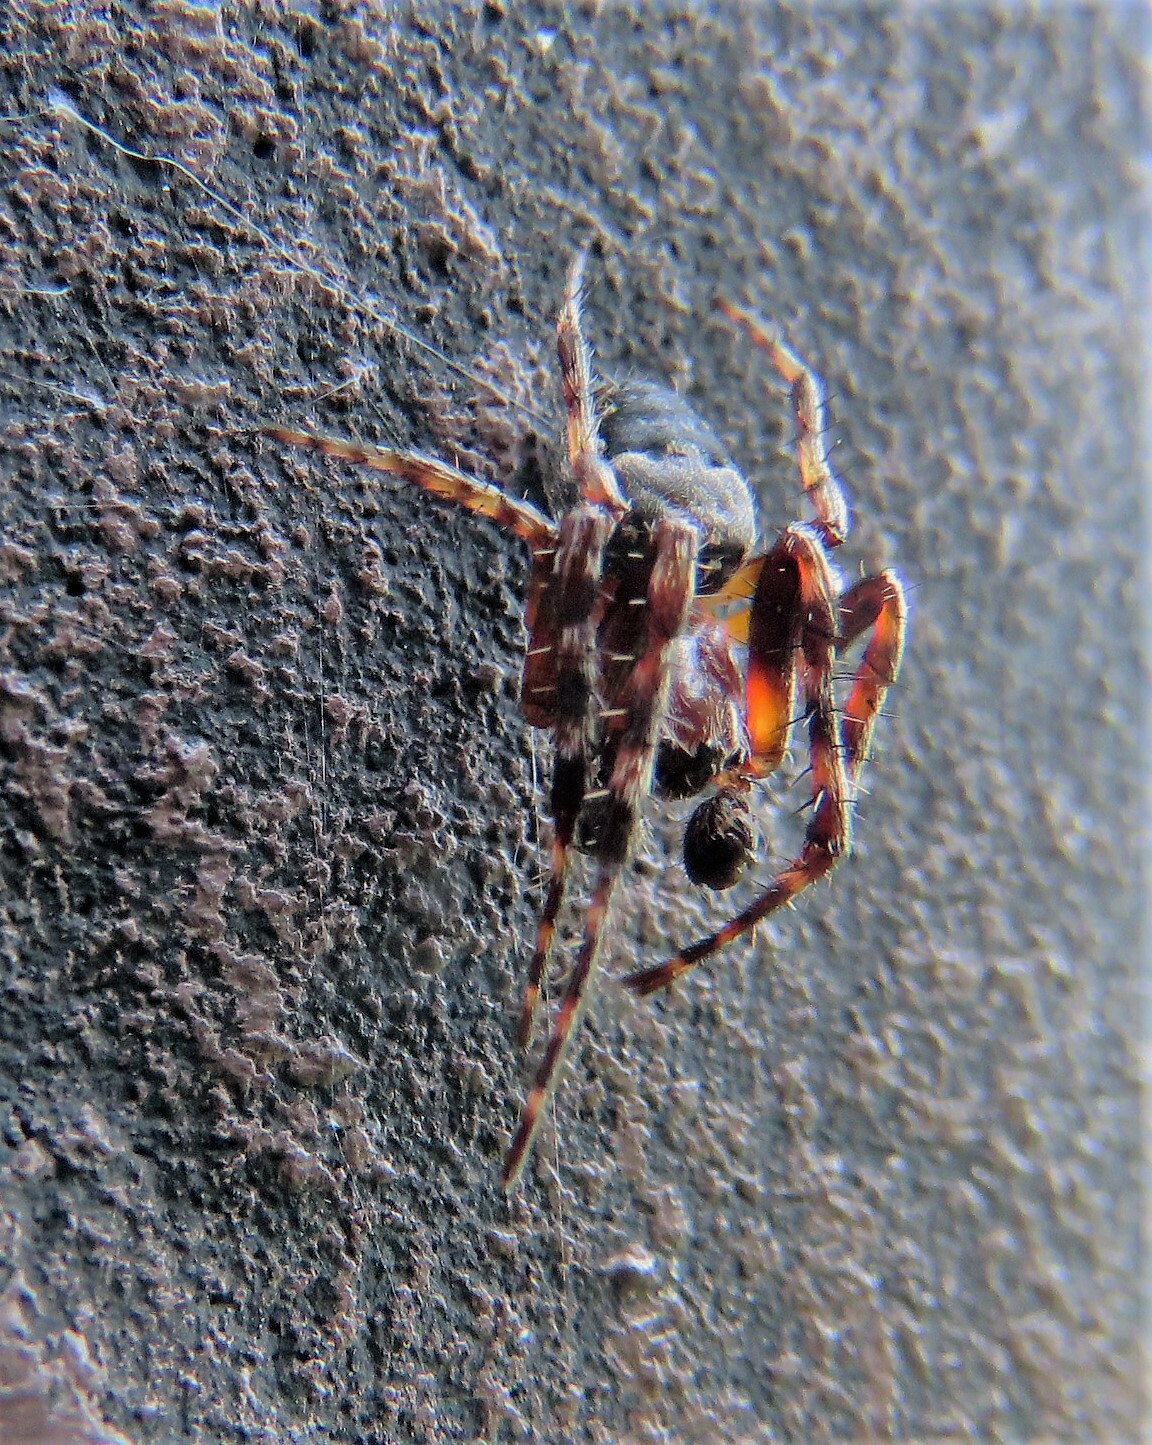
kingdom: Animalia
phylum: Arthropoda
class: Arachnida
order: Araneae
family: Araneidae
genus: Larinioides
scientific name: Larinioides patagiatus
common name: Ornamental orbweaver
